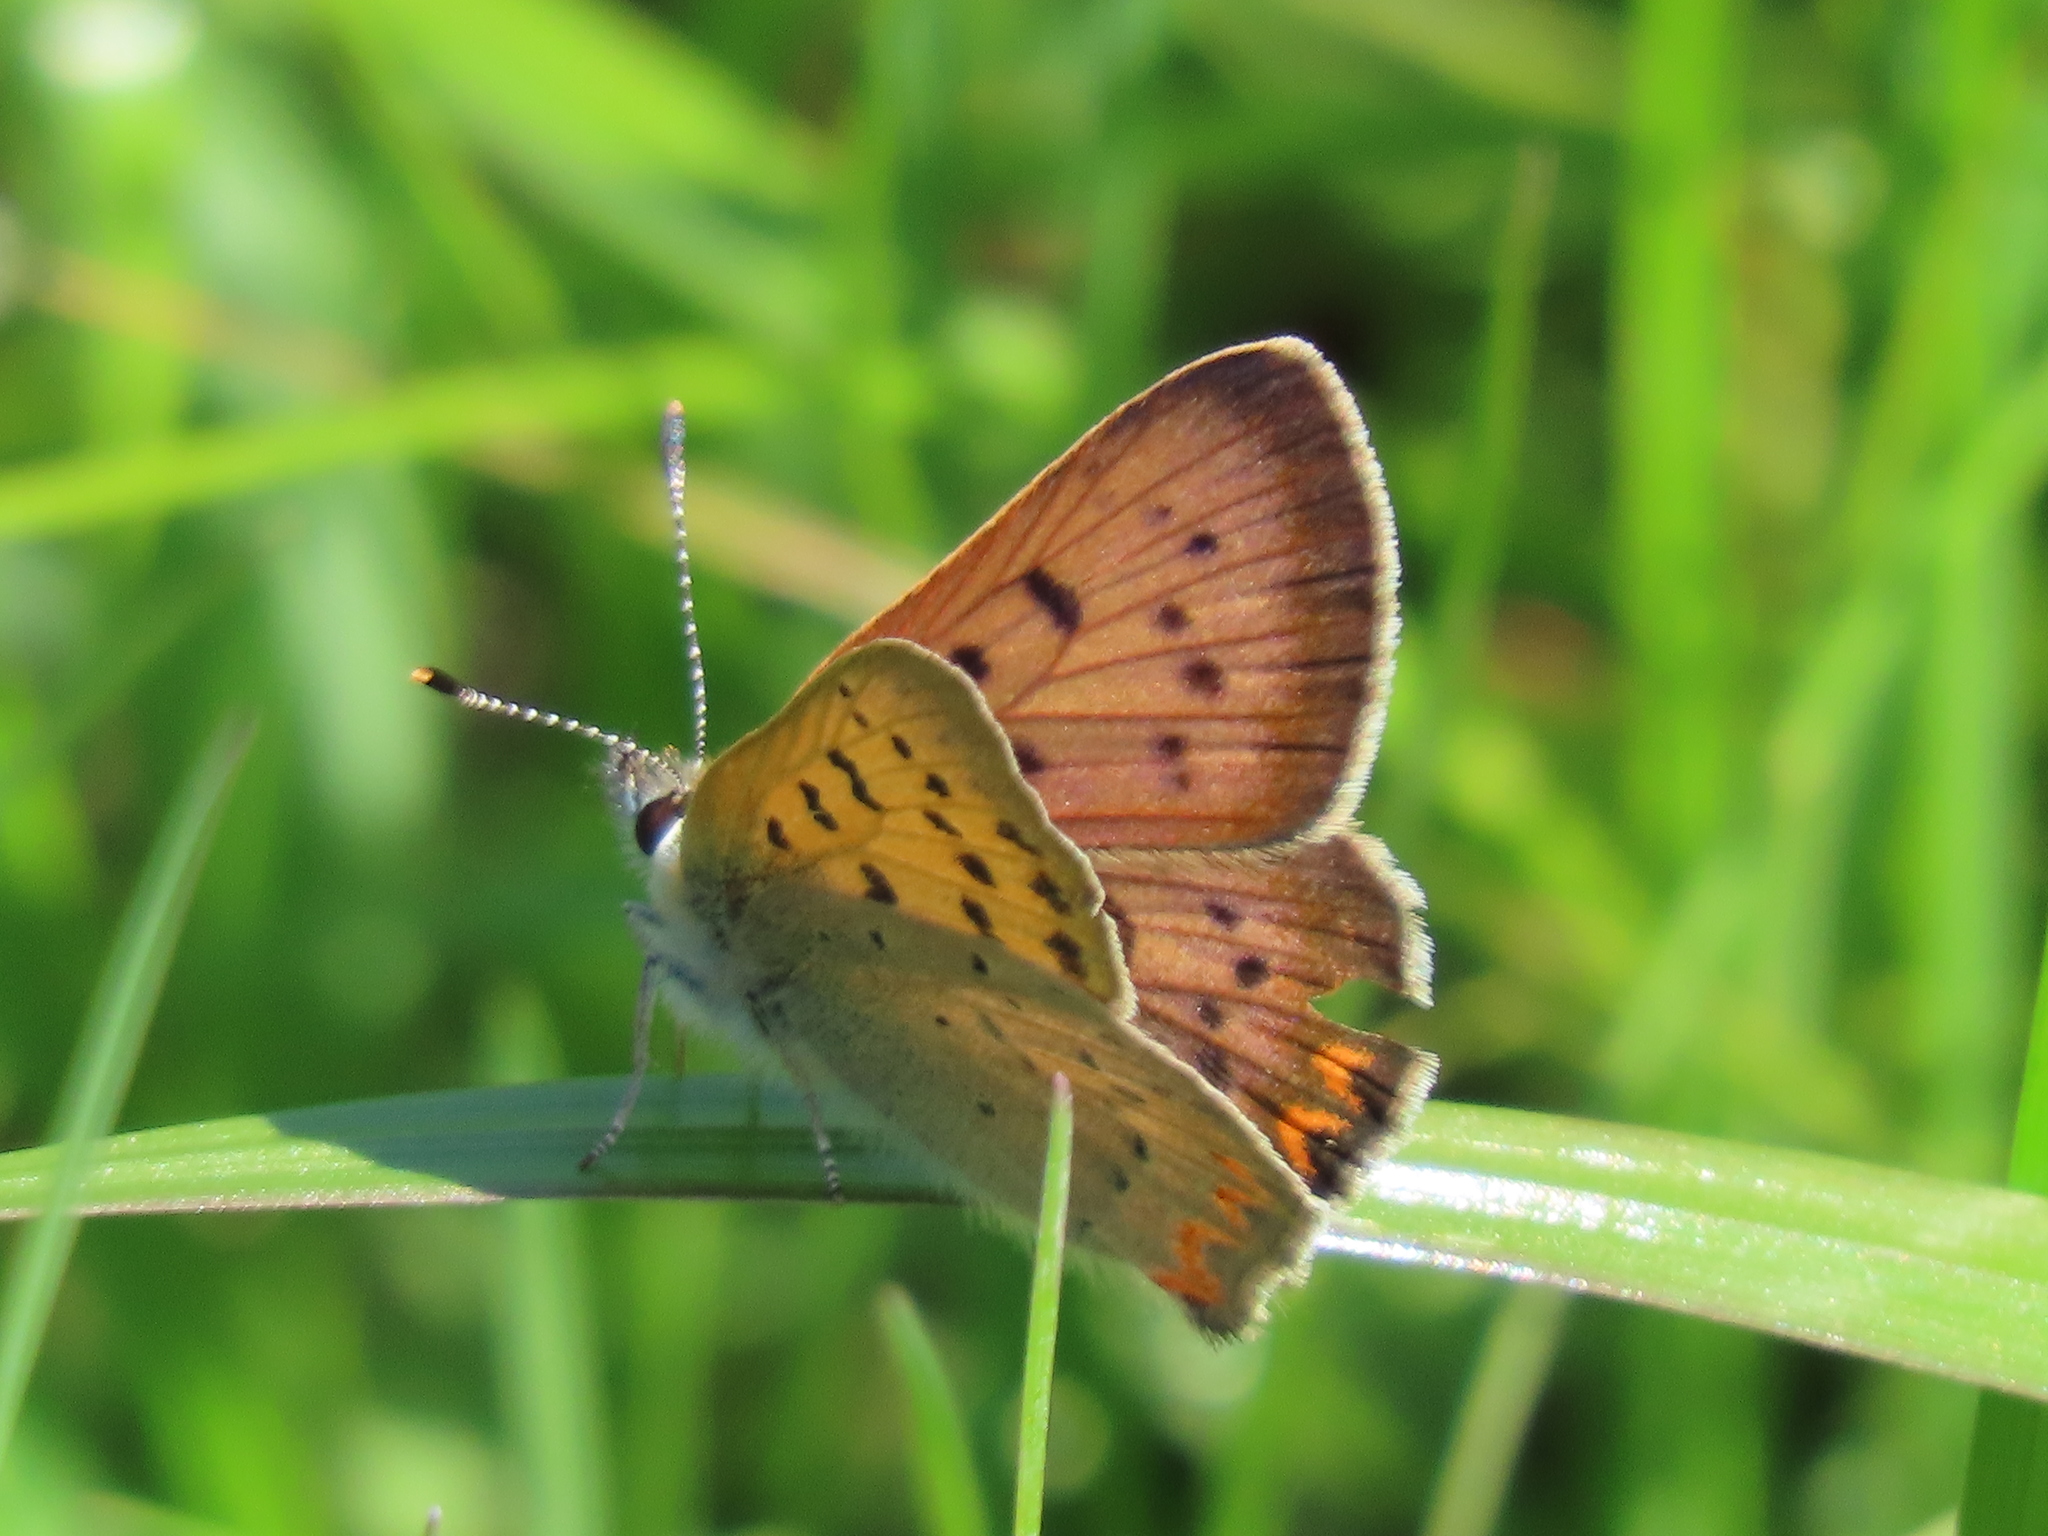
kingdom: Animalia
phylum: Arthropoda
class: Insecta
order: Lepidoptera
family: Lycaenidae
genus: Tharsalea
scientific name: Tharsalea helloides
